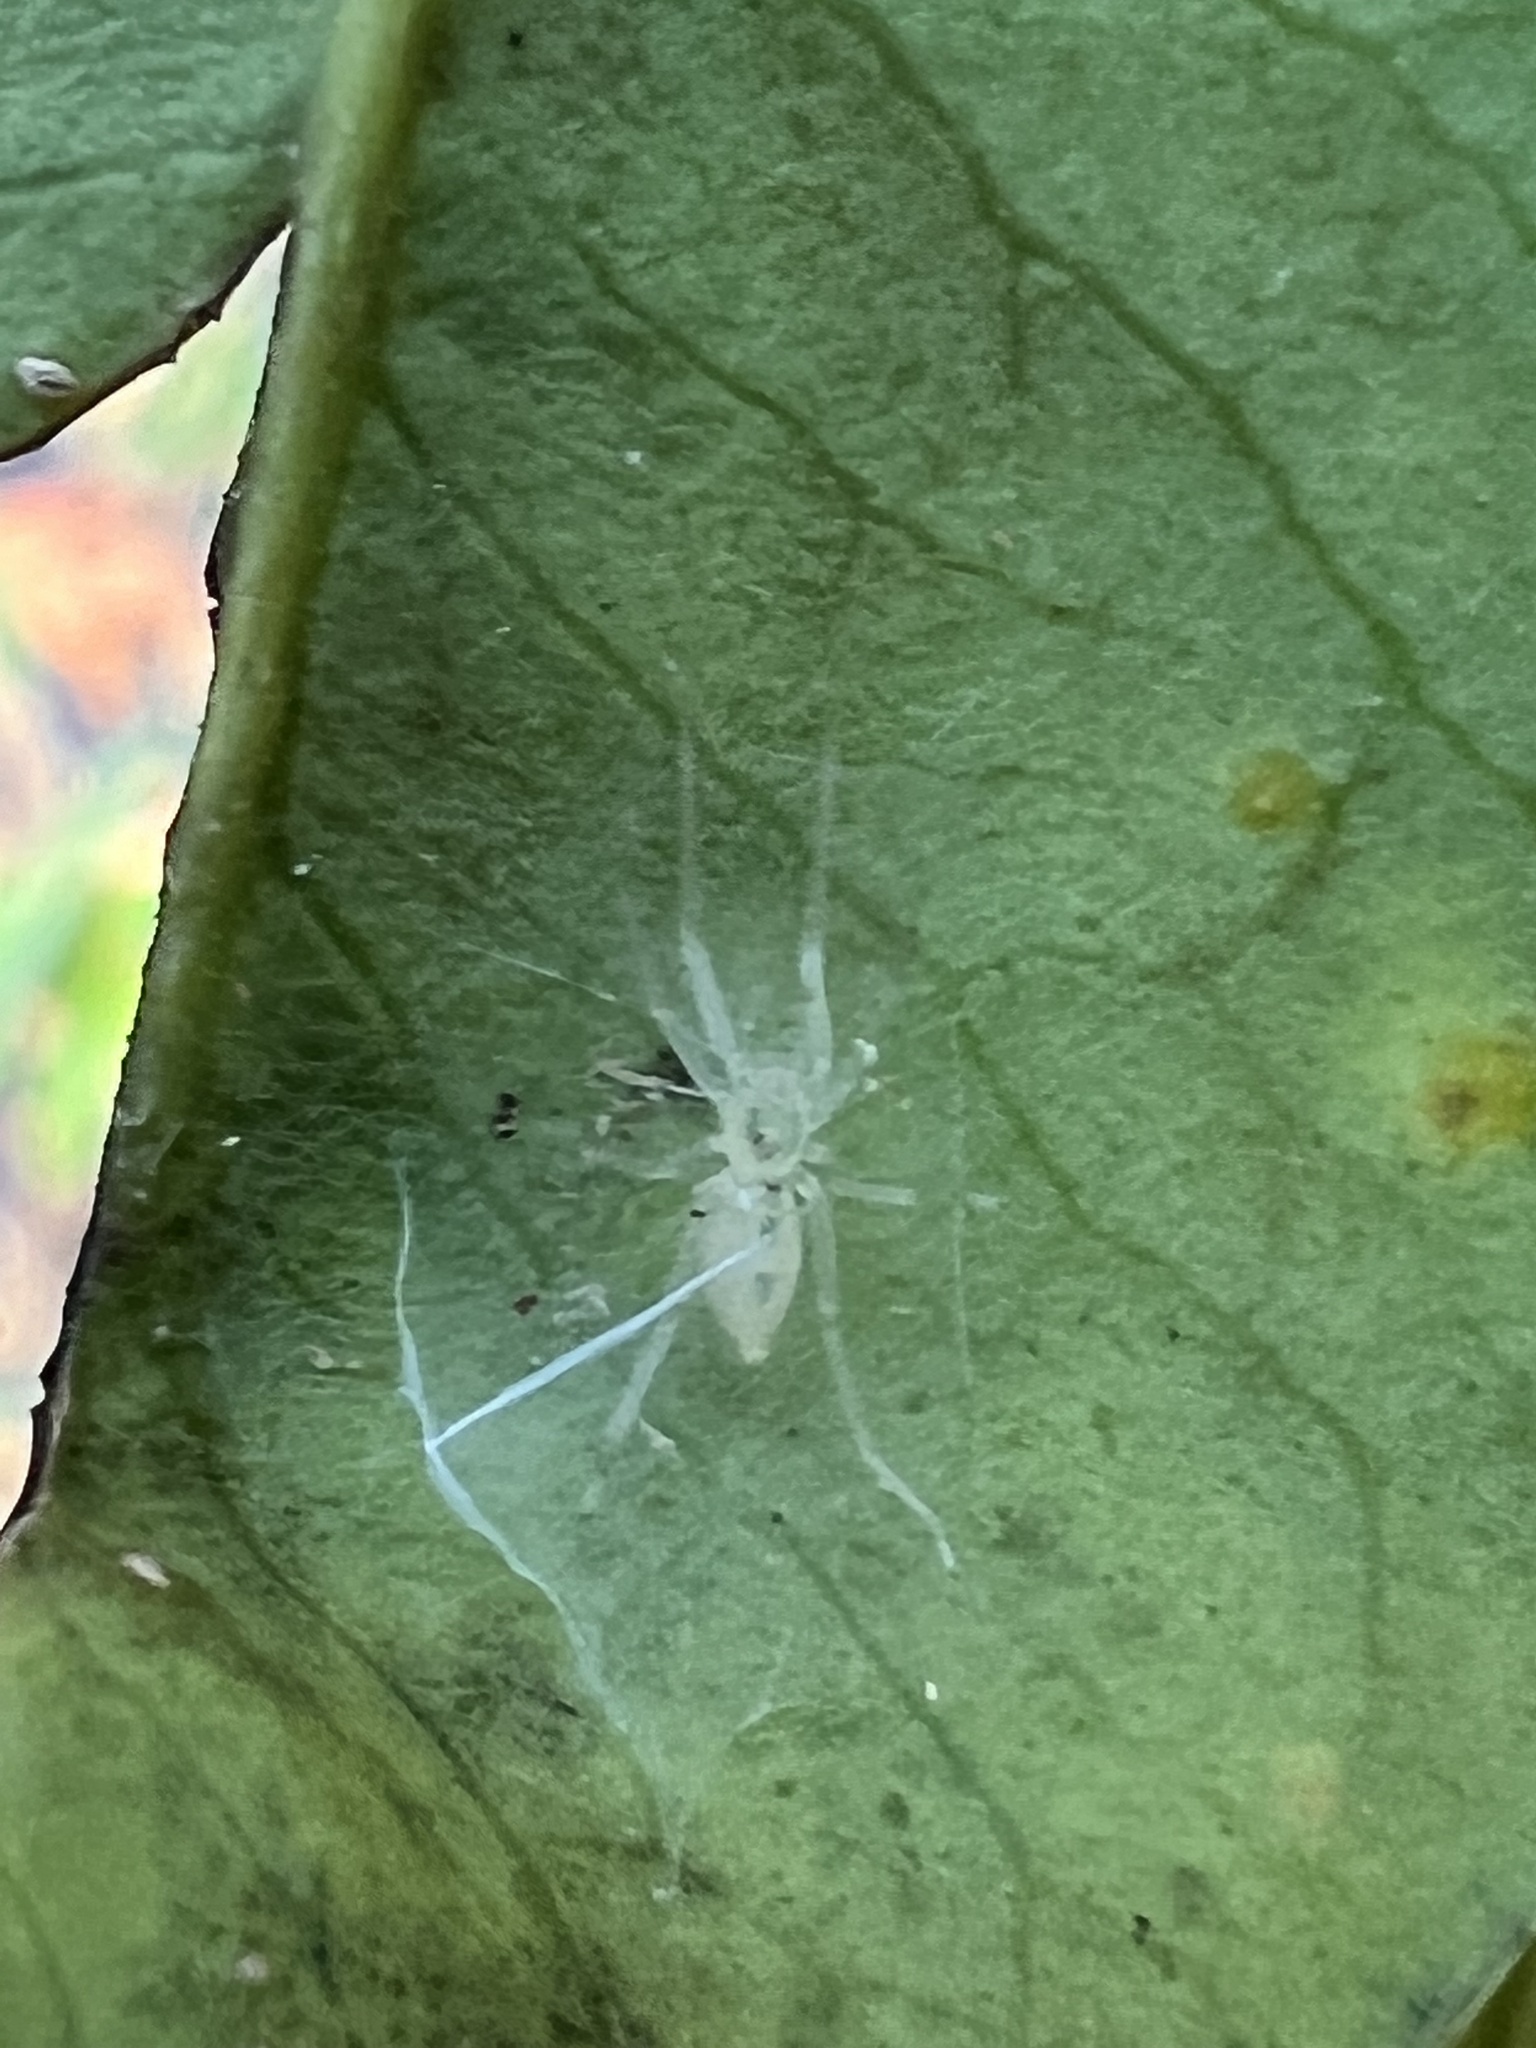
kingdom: Animalia
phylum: Arthropoda
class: Arachnida
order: Araneae
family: Anyphaenidae
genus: Wulfila
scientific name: Wulfila albens
